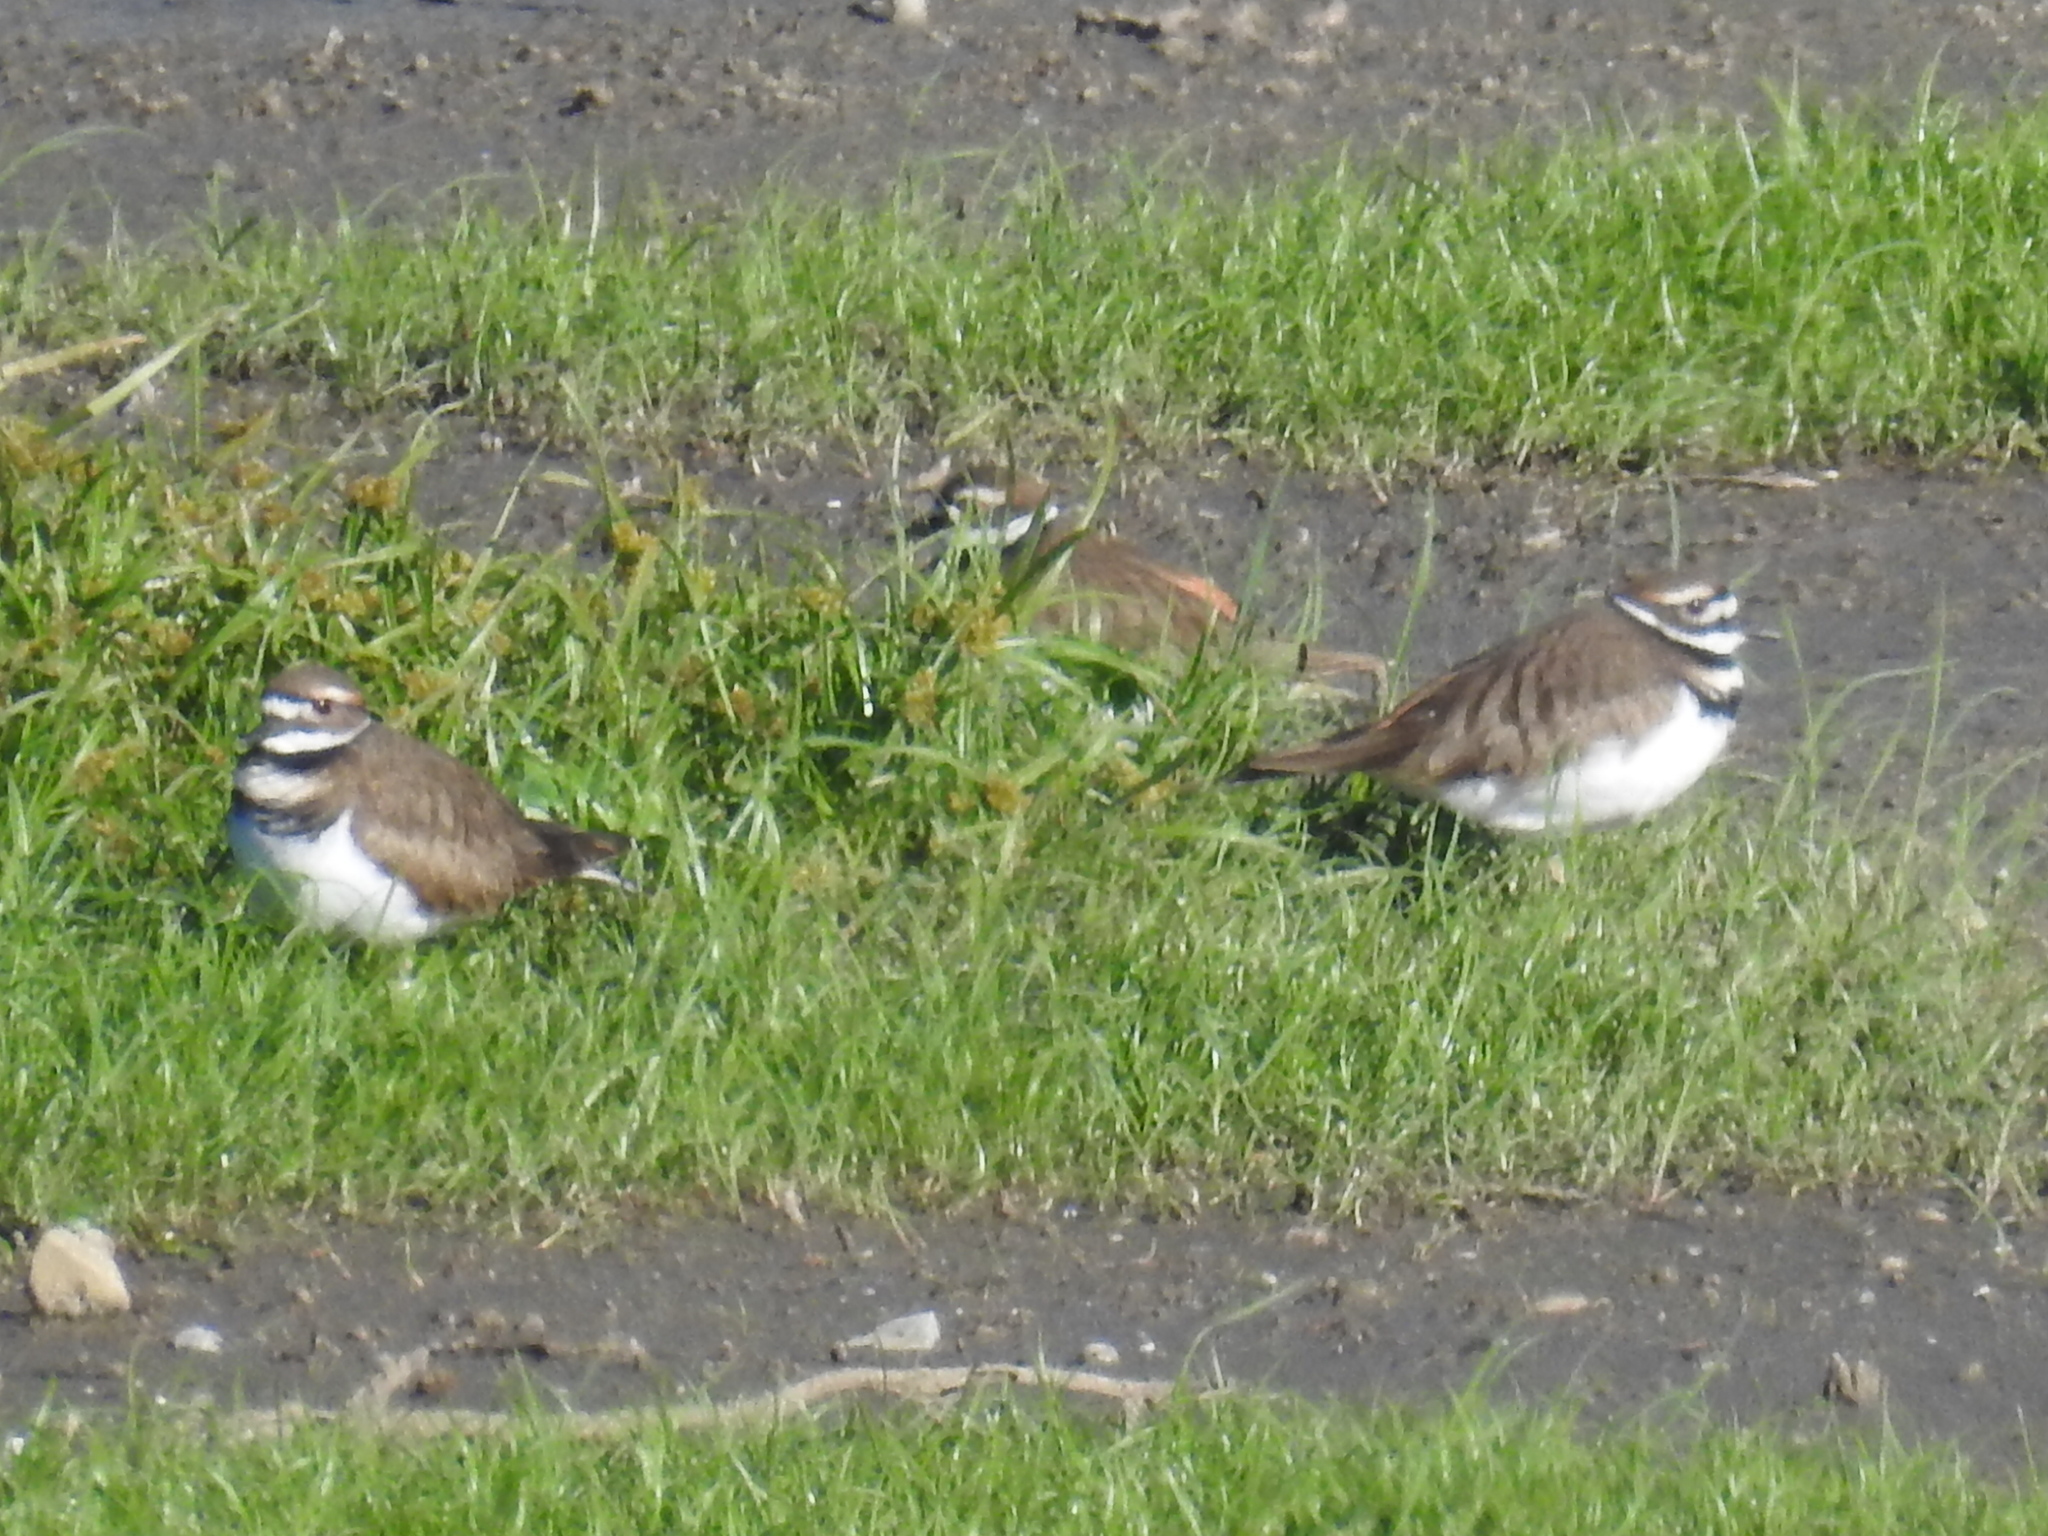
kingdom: Animalia
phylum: Chordata
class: Aves
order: Charadriiformes
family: Charadriidae
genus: Charadrius
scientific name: Charadrius vociferus
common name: Killdeer
